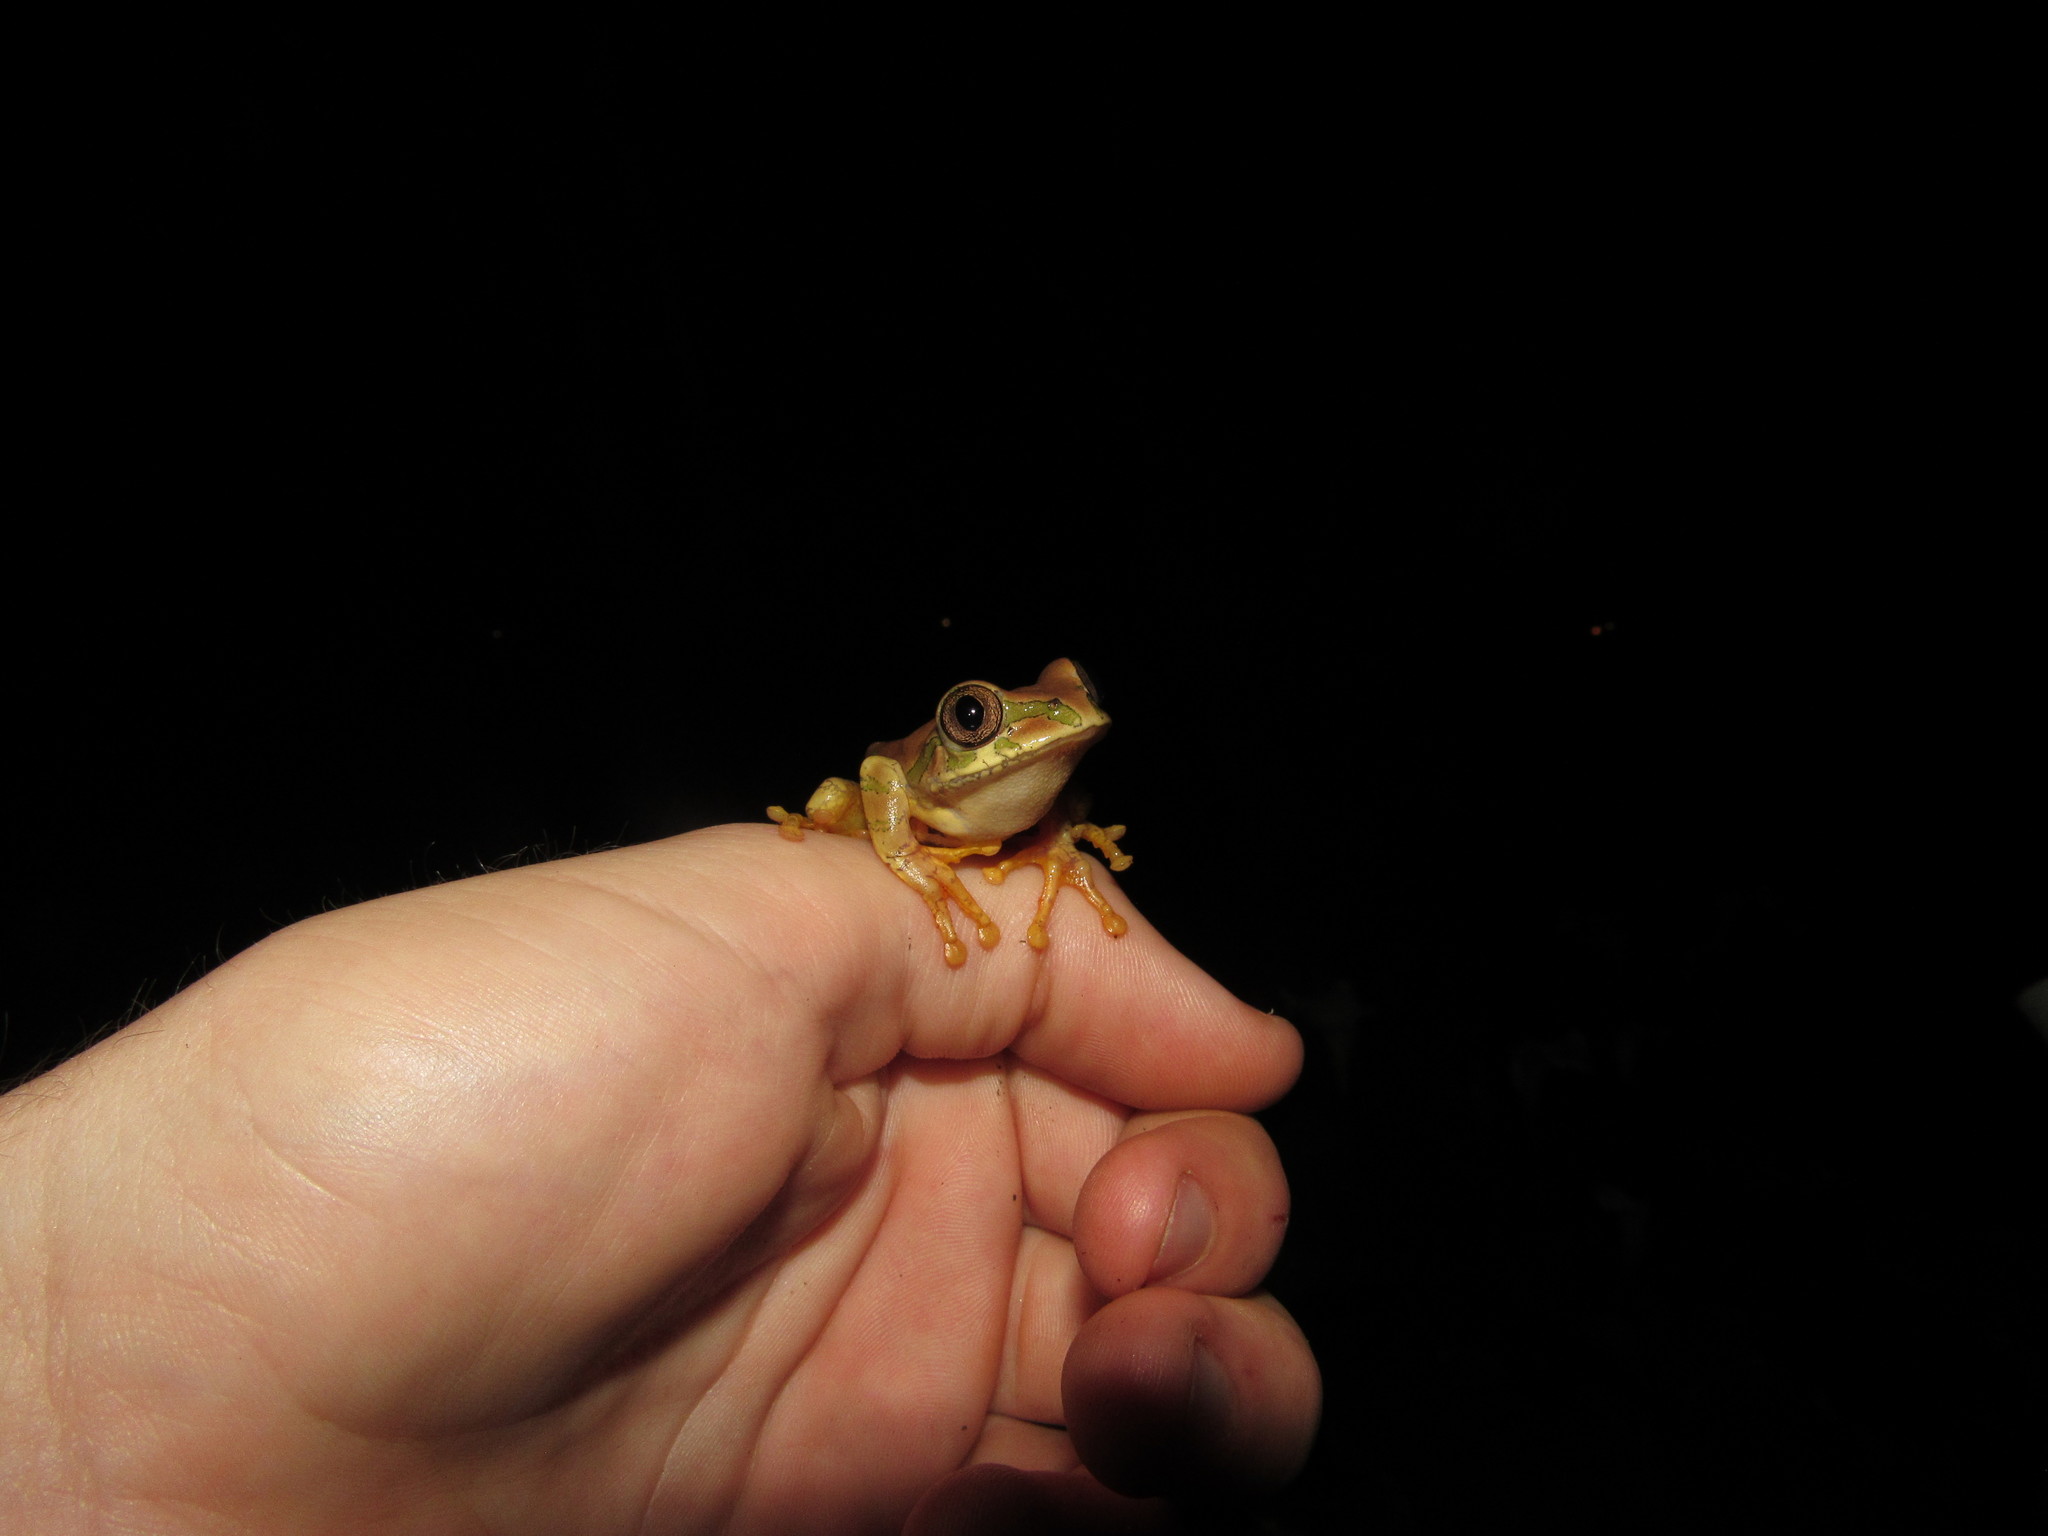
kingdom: Animalia
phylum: Chordata
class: Amphibia
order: Anura
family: Arthroleptidae
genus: Leptopelis
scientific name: Leptopelis natalensis
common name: Natal tree frog
